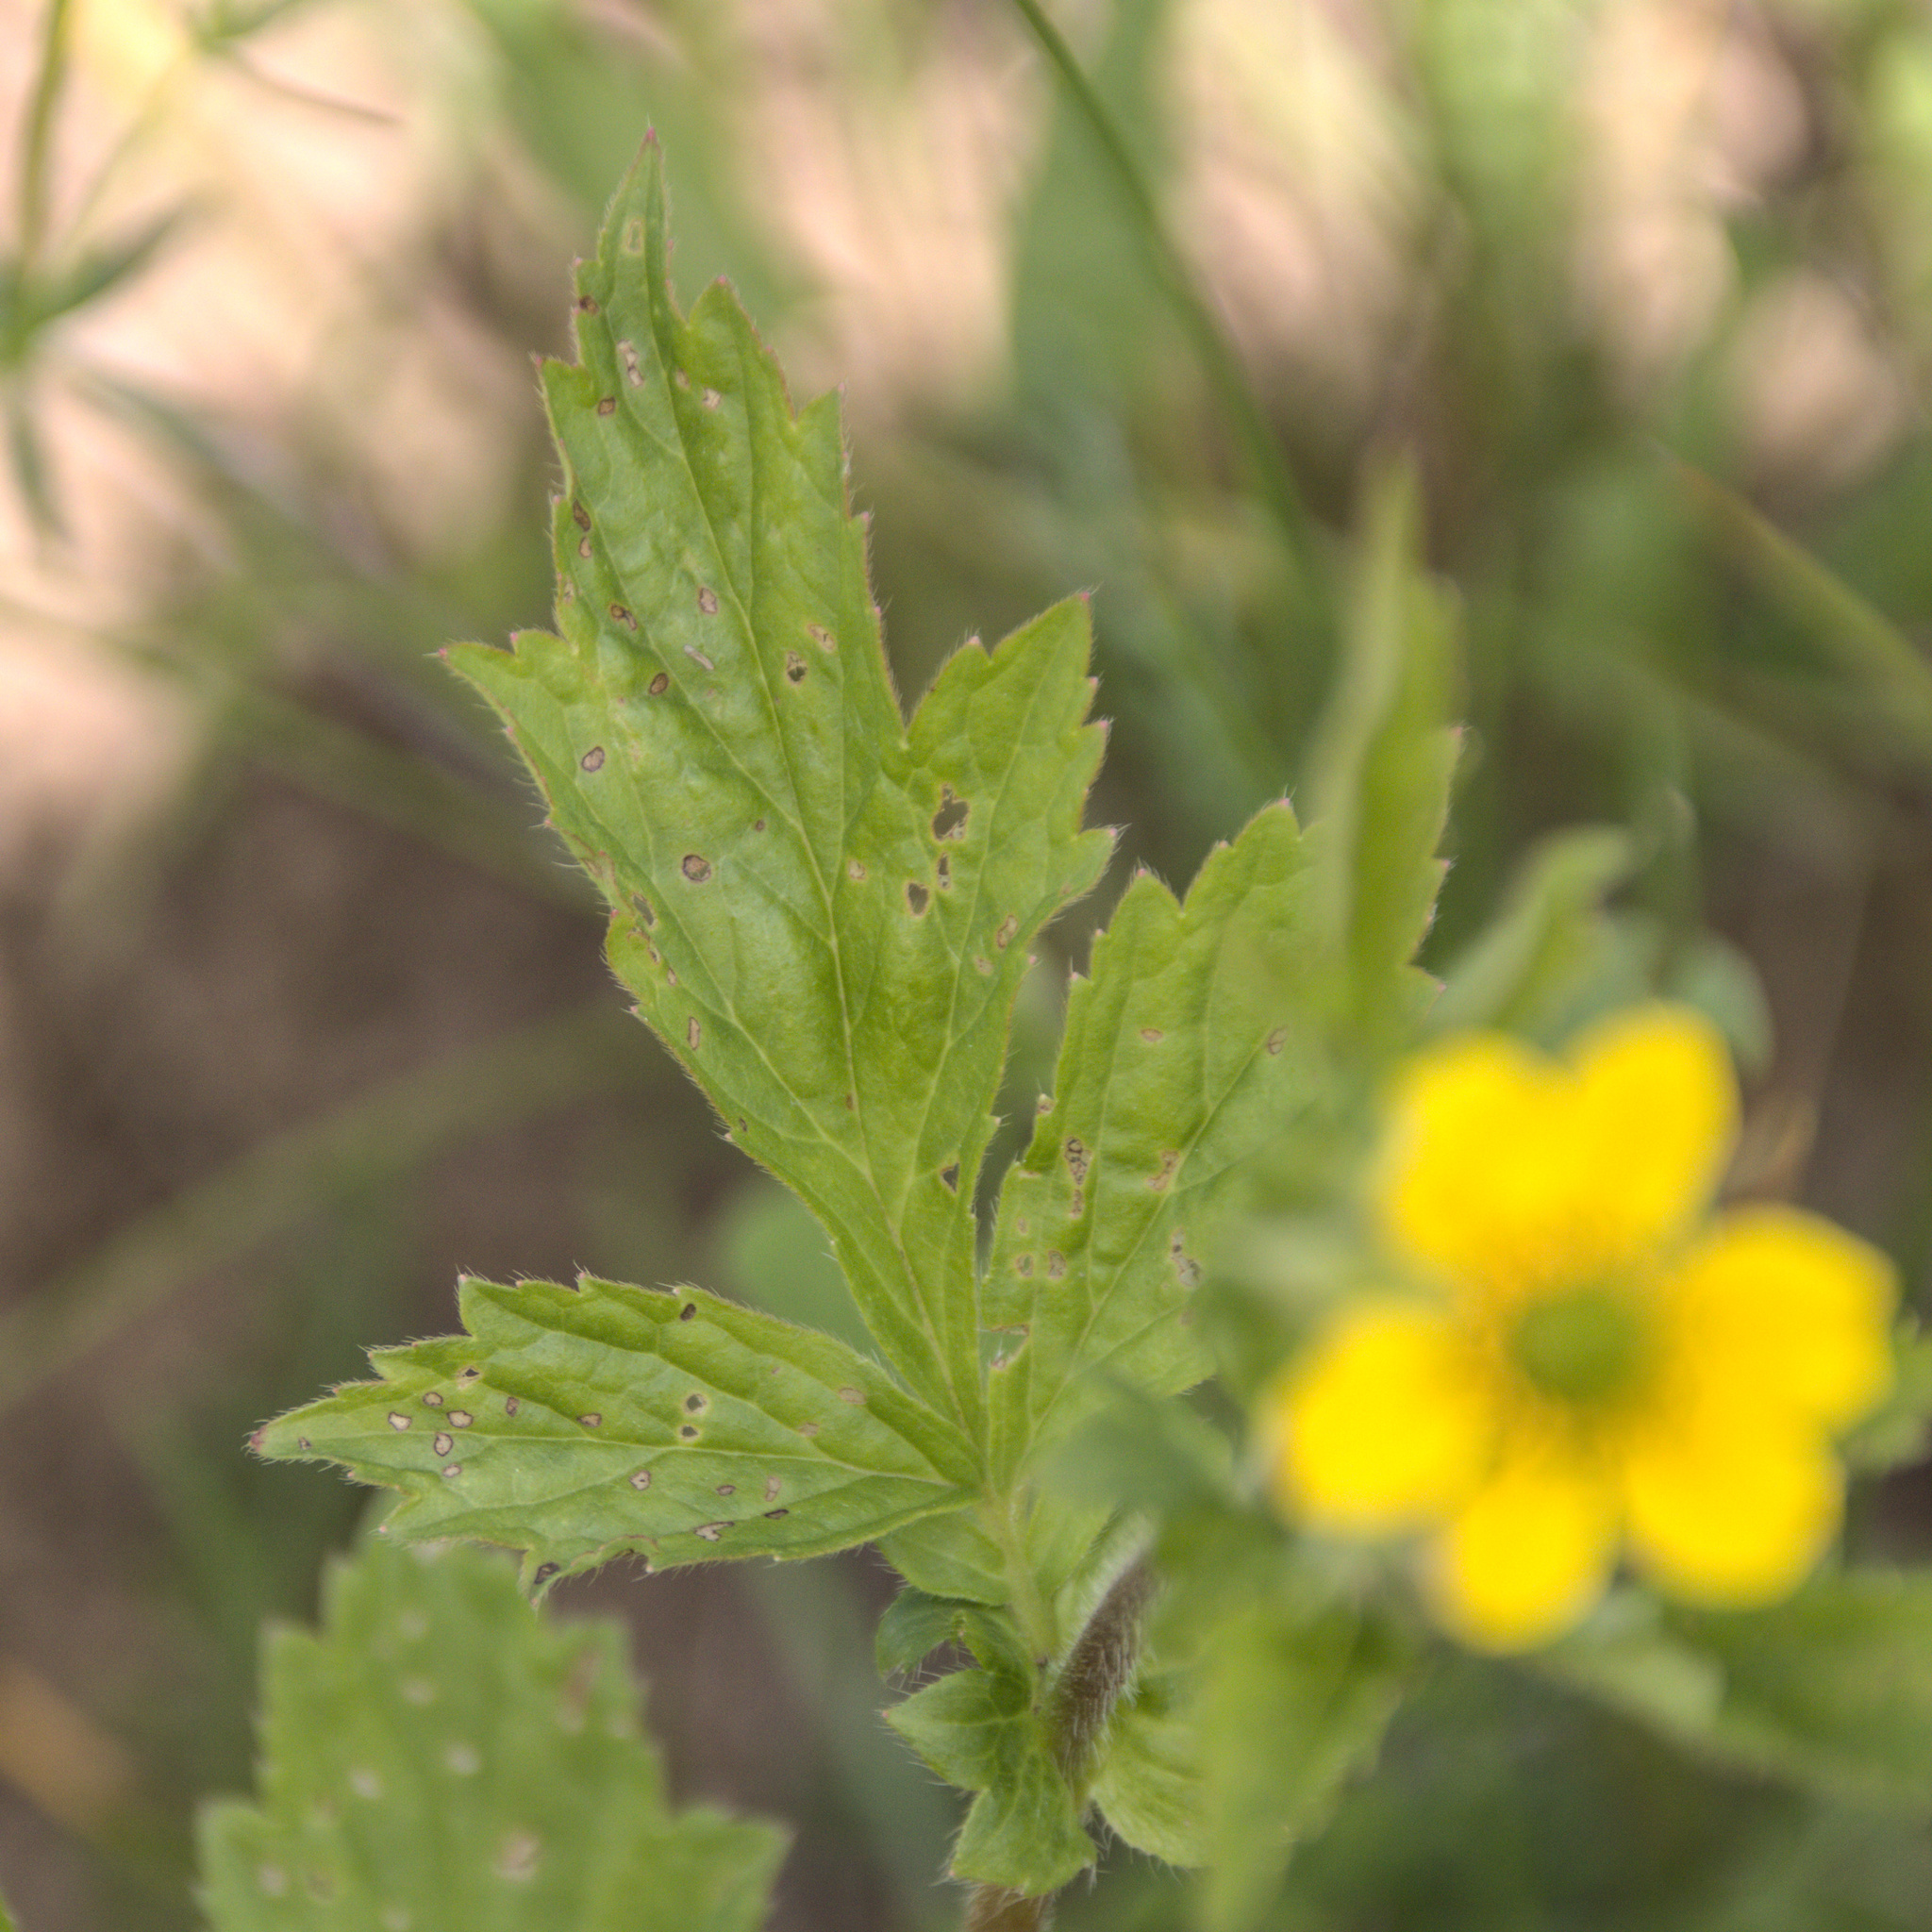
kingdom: Plantae
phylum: Tracheophyta
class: Magnoliopsida
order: Rosales
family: Rosaceae
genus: Geum
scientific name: Geum aleppicum
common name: Yellow avens
